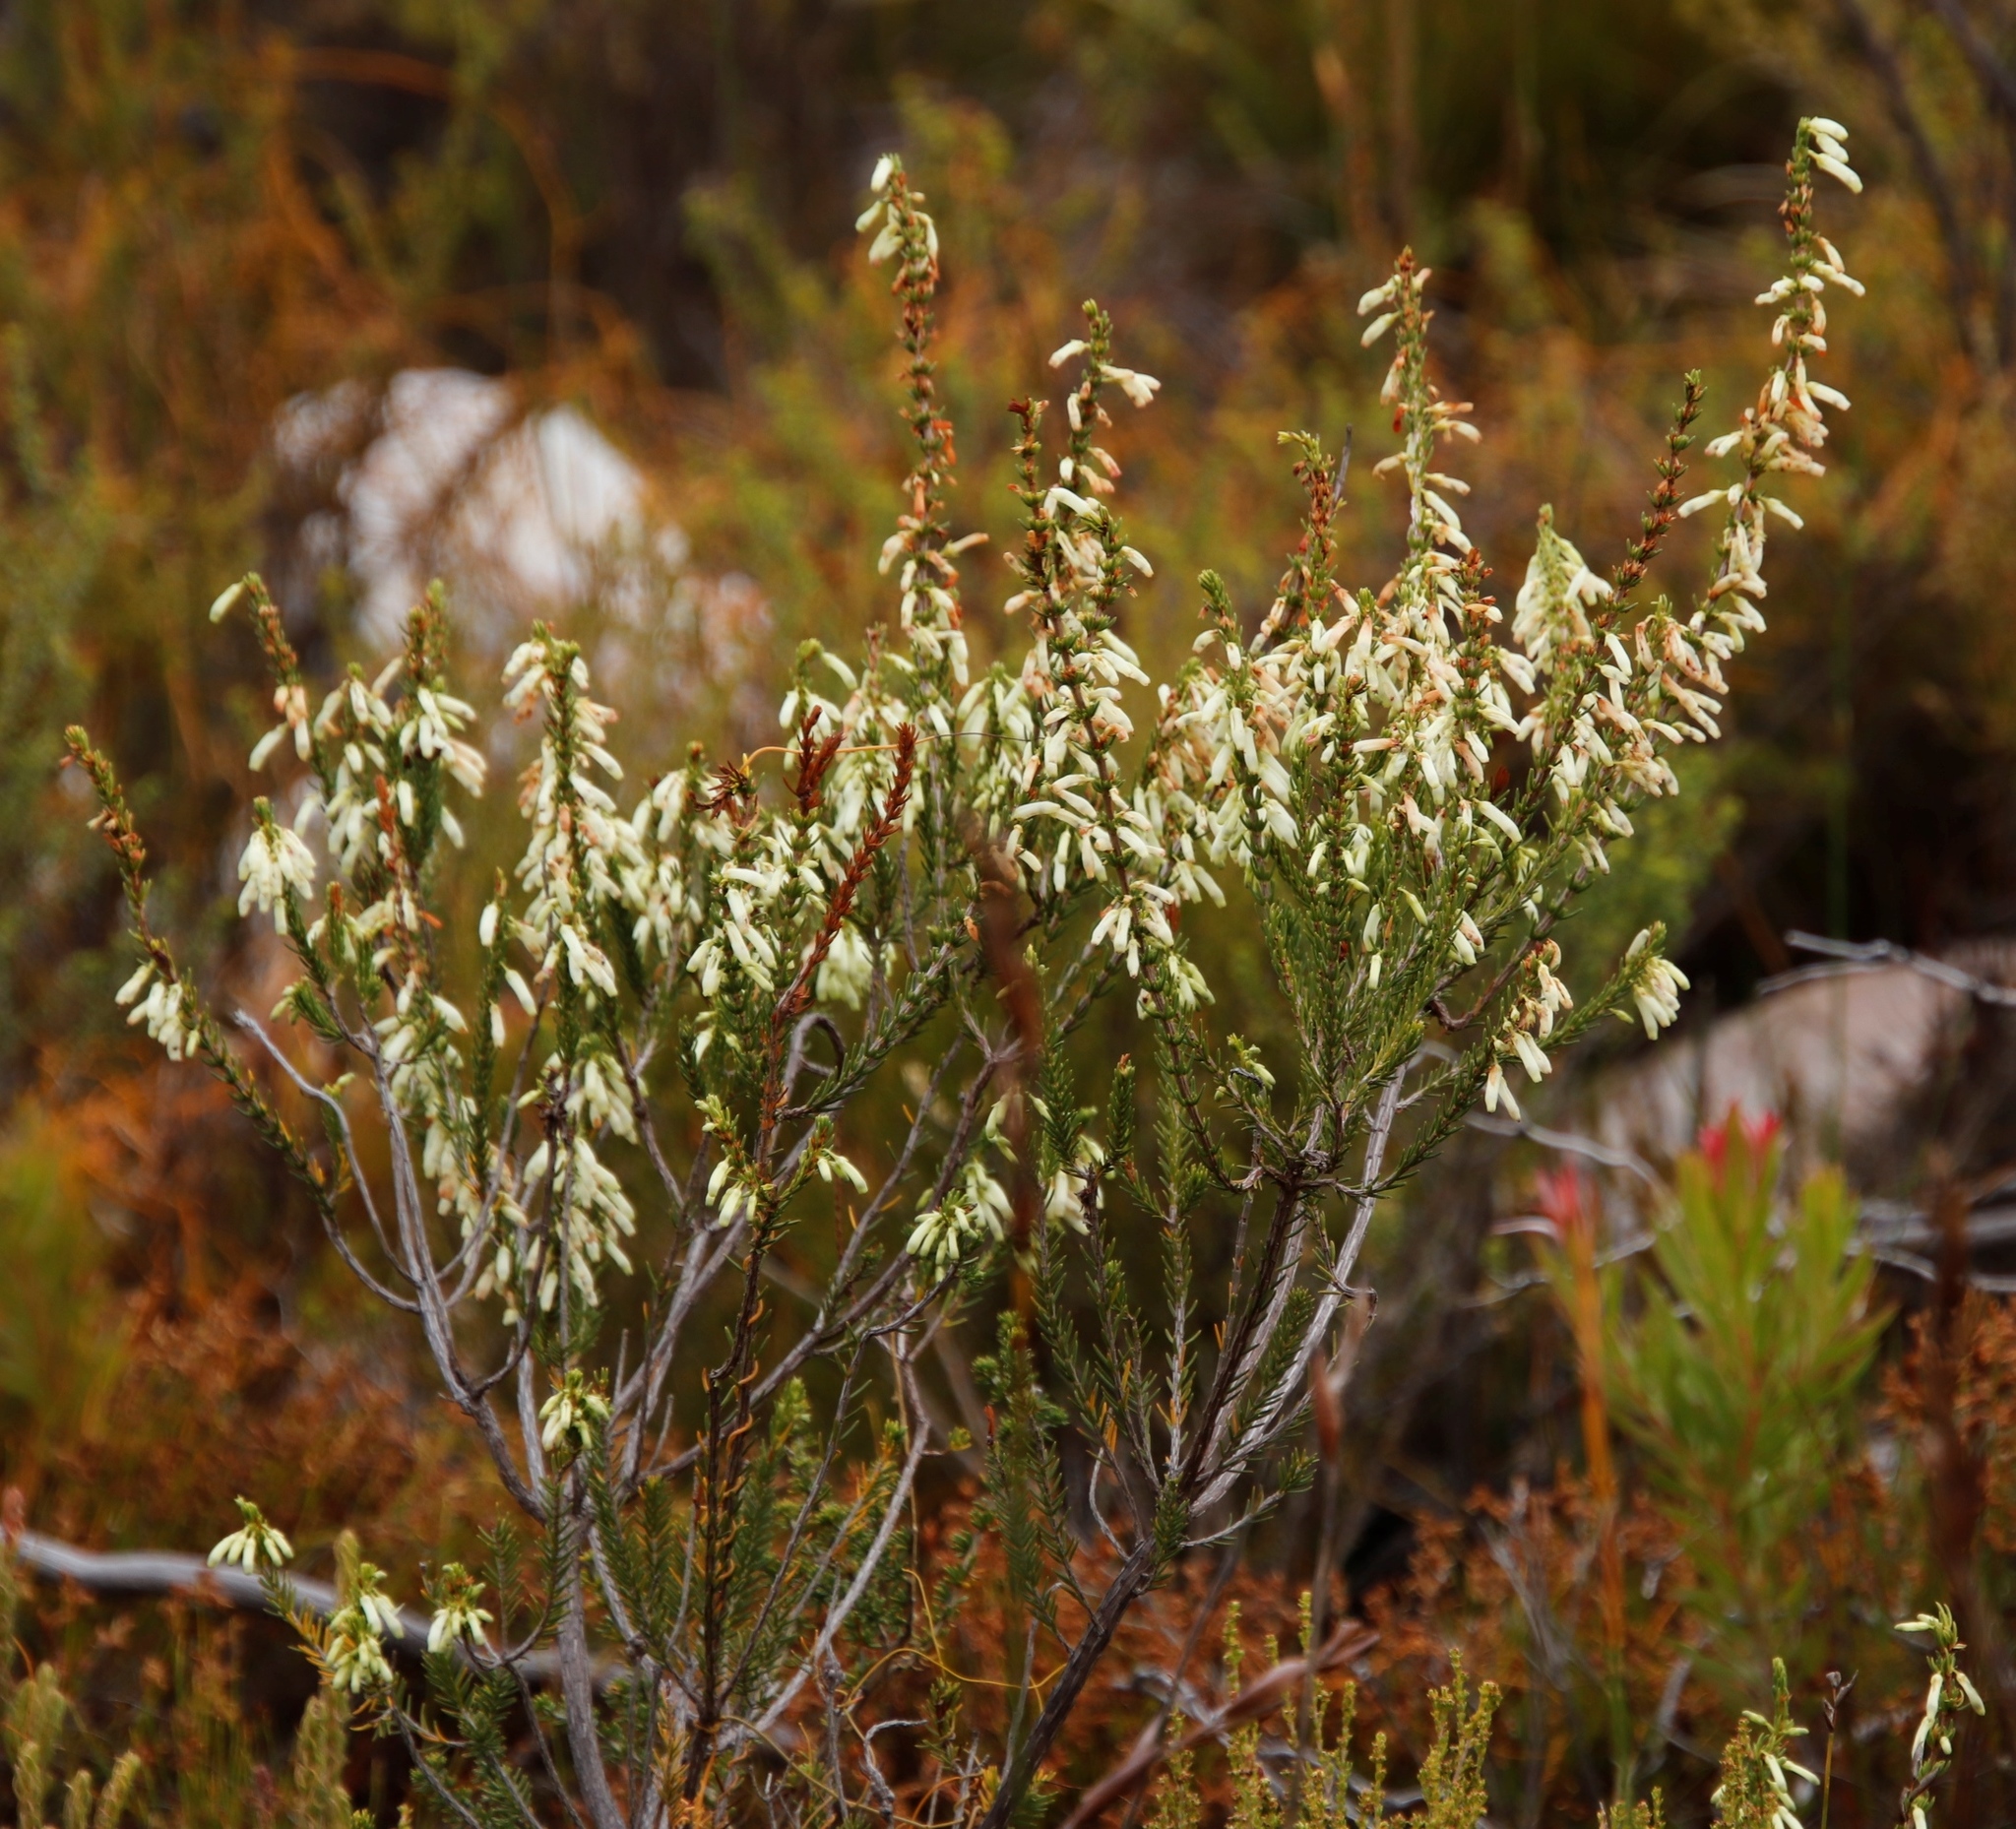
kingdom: Plantae
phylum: Tracheophyta
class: Magnoliopsida
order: Ericales
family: Ericaceae
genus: Erica
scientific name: Erica mammosa
